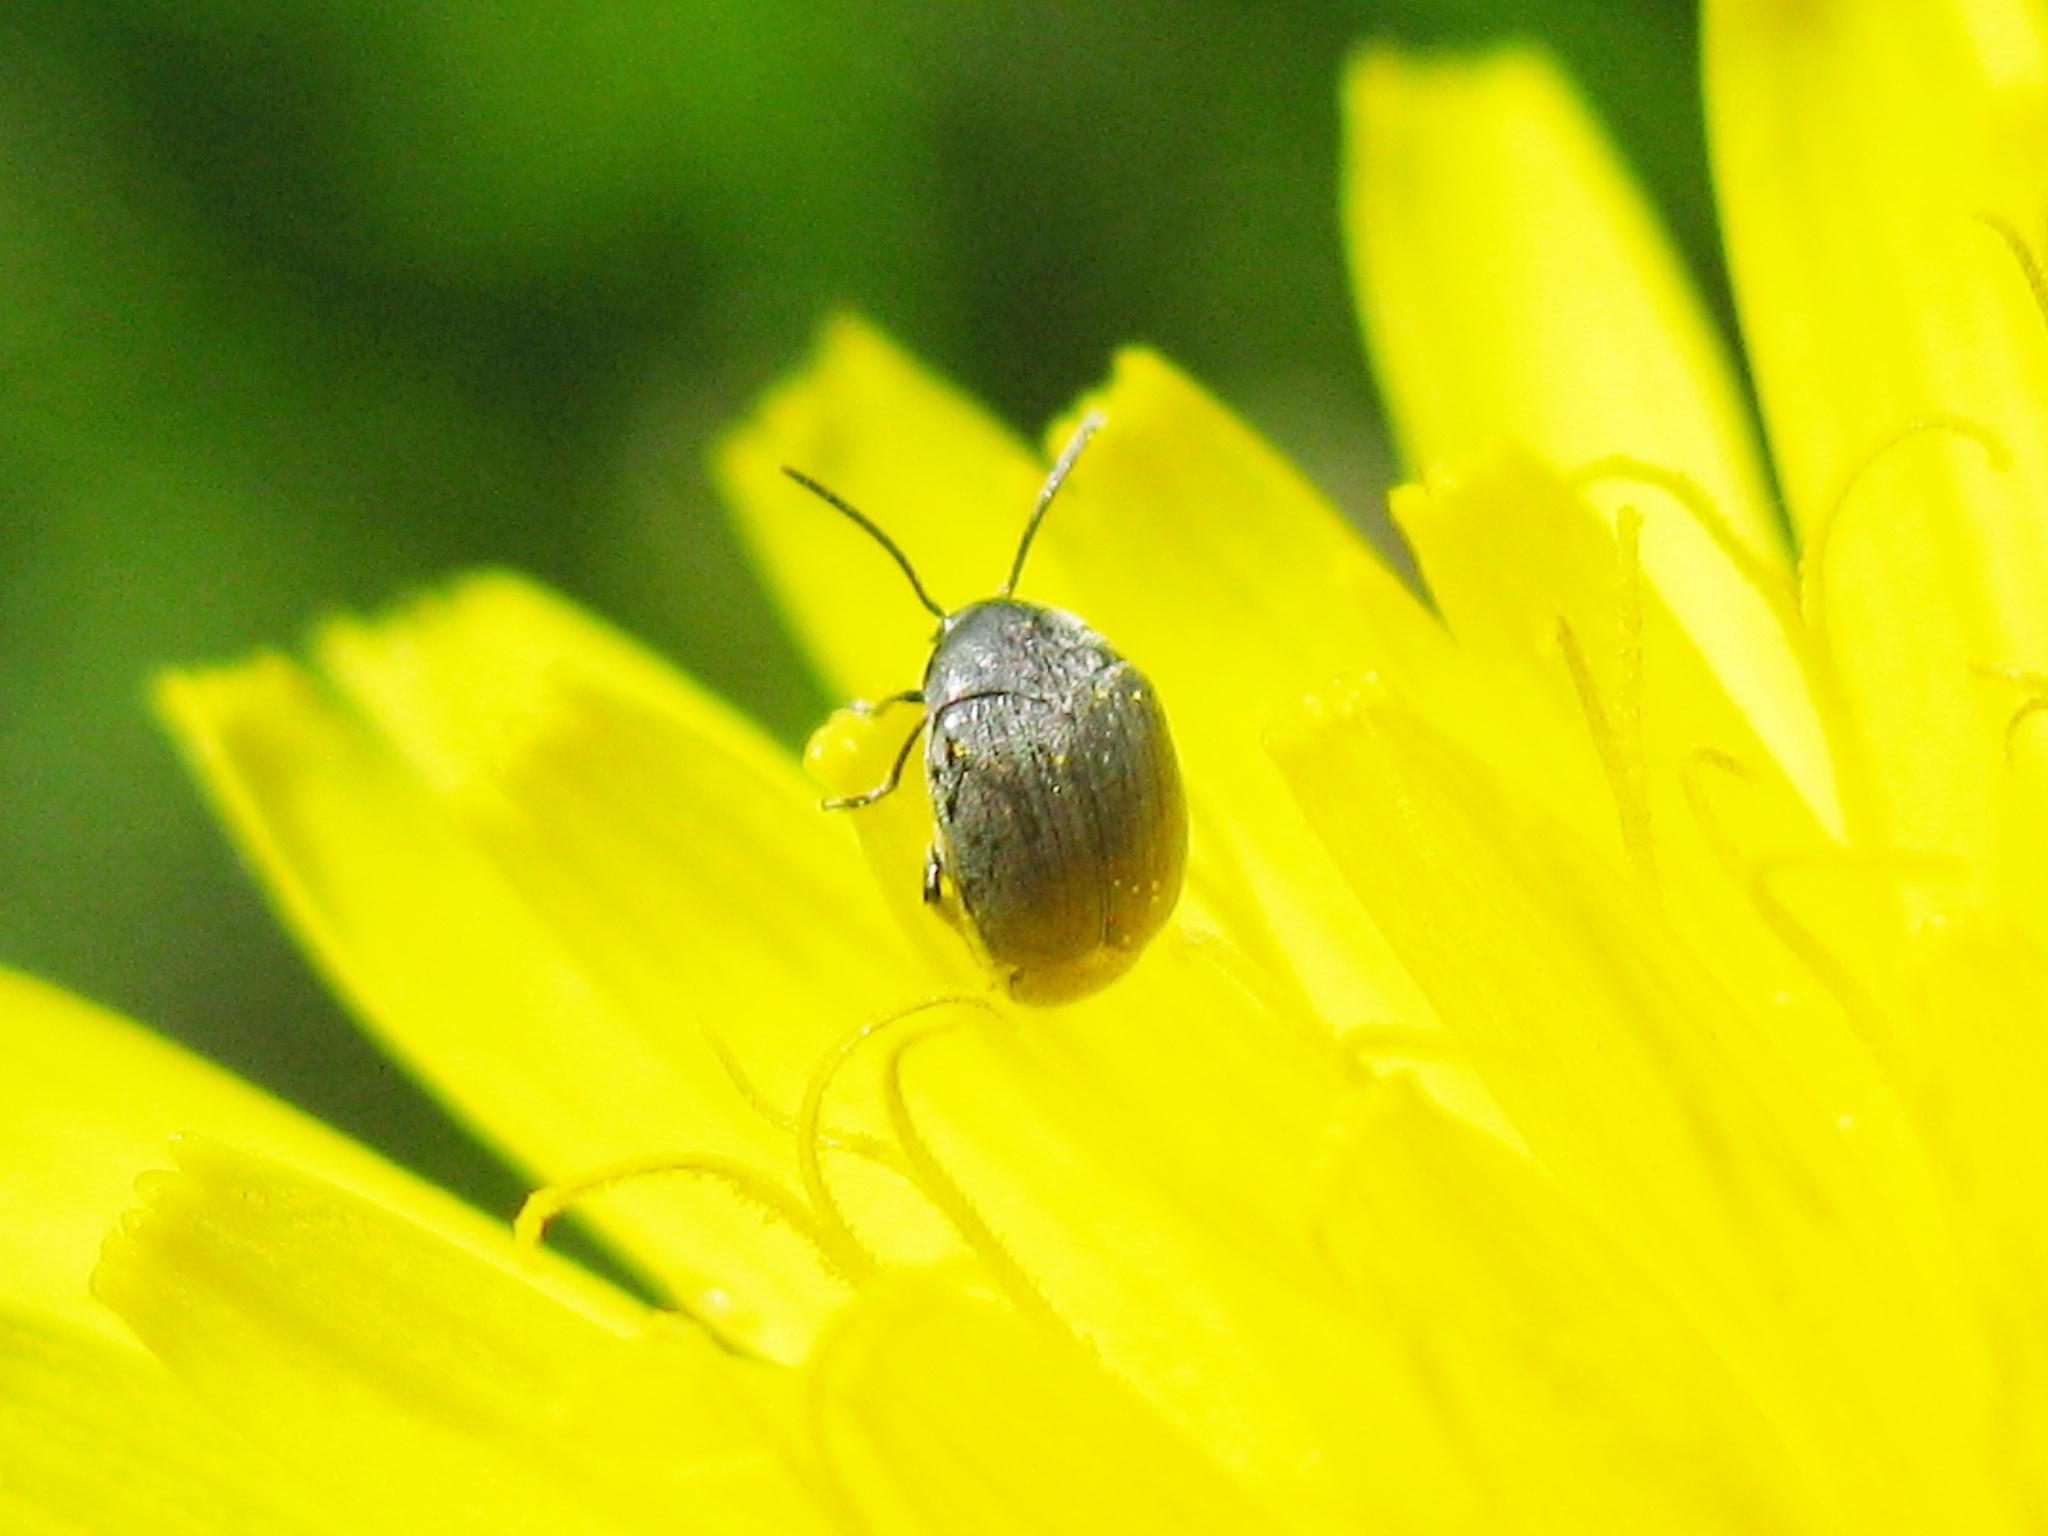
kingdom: Animalia
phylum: Arthropoda
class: Insecta
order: Coleoptera
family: Chrysomelidae
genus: Spermophagus
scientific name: Spermophagus
